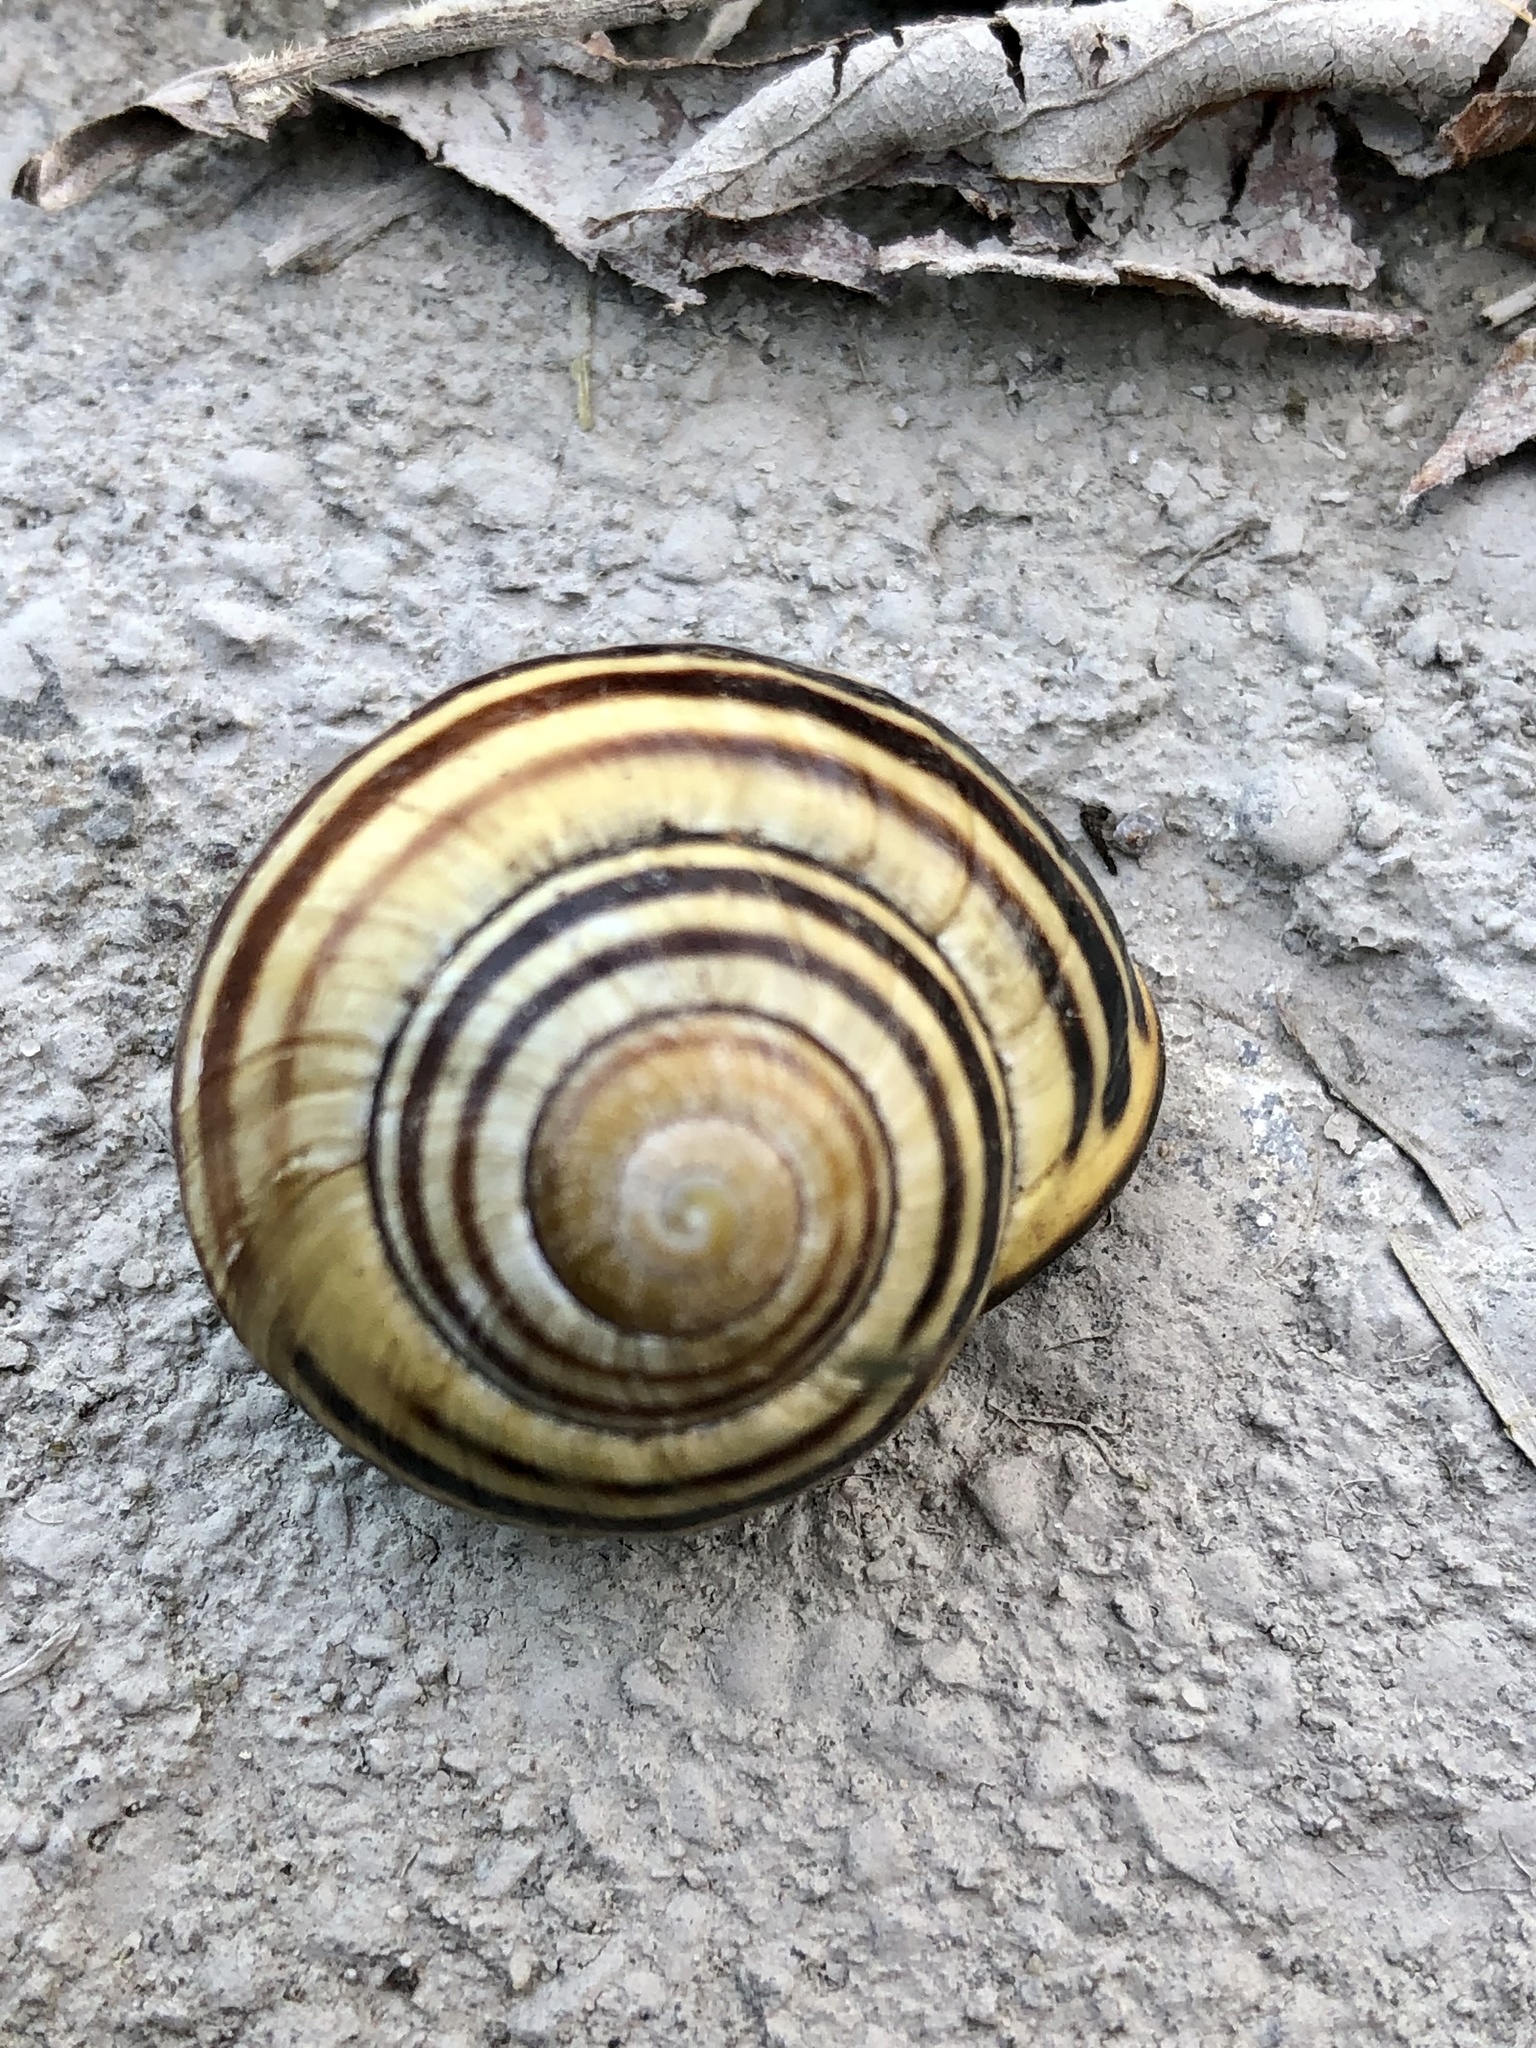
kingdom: Animalia
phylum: Mollusca
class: Gastropoda
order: Stylommatophora
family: Helicidae
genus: Cepaea
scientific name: Cepaea nemoralis
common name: Grovesnail
